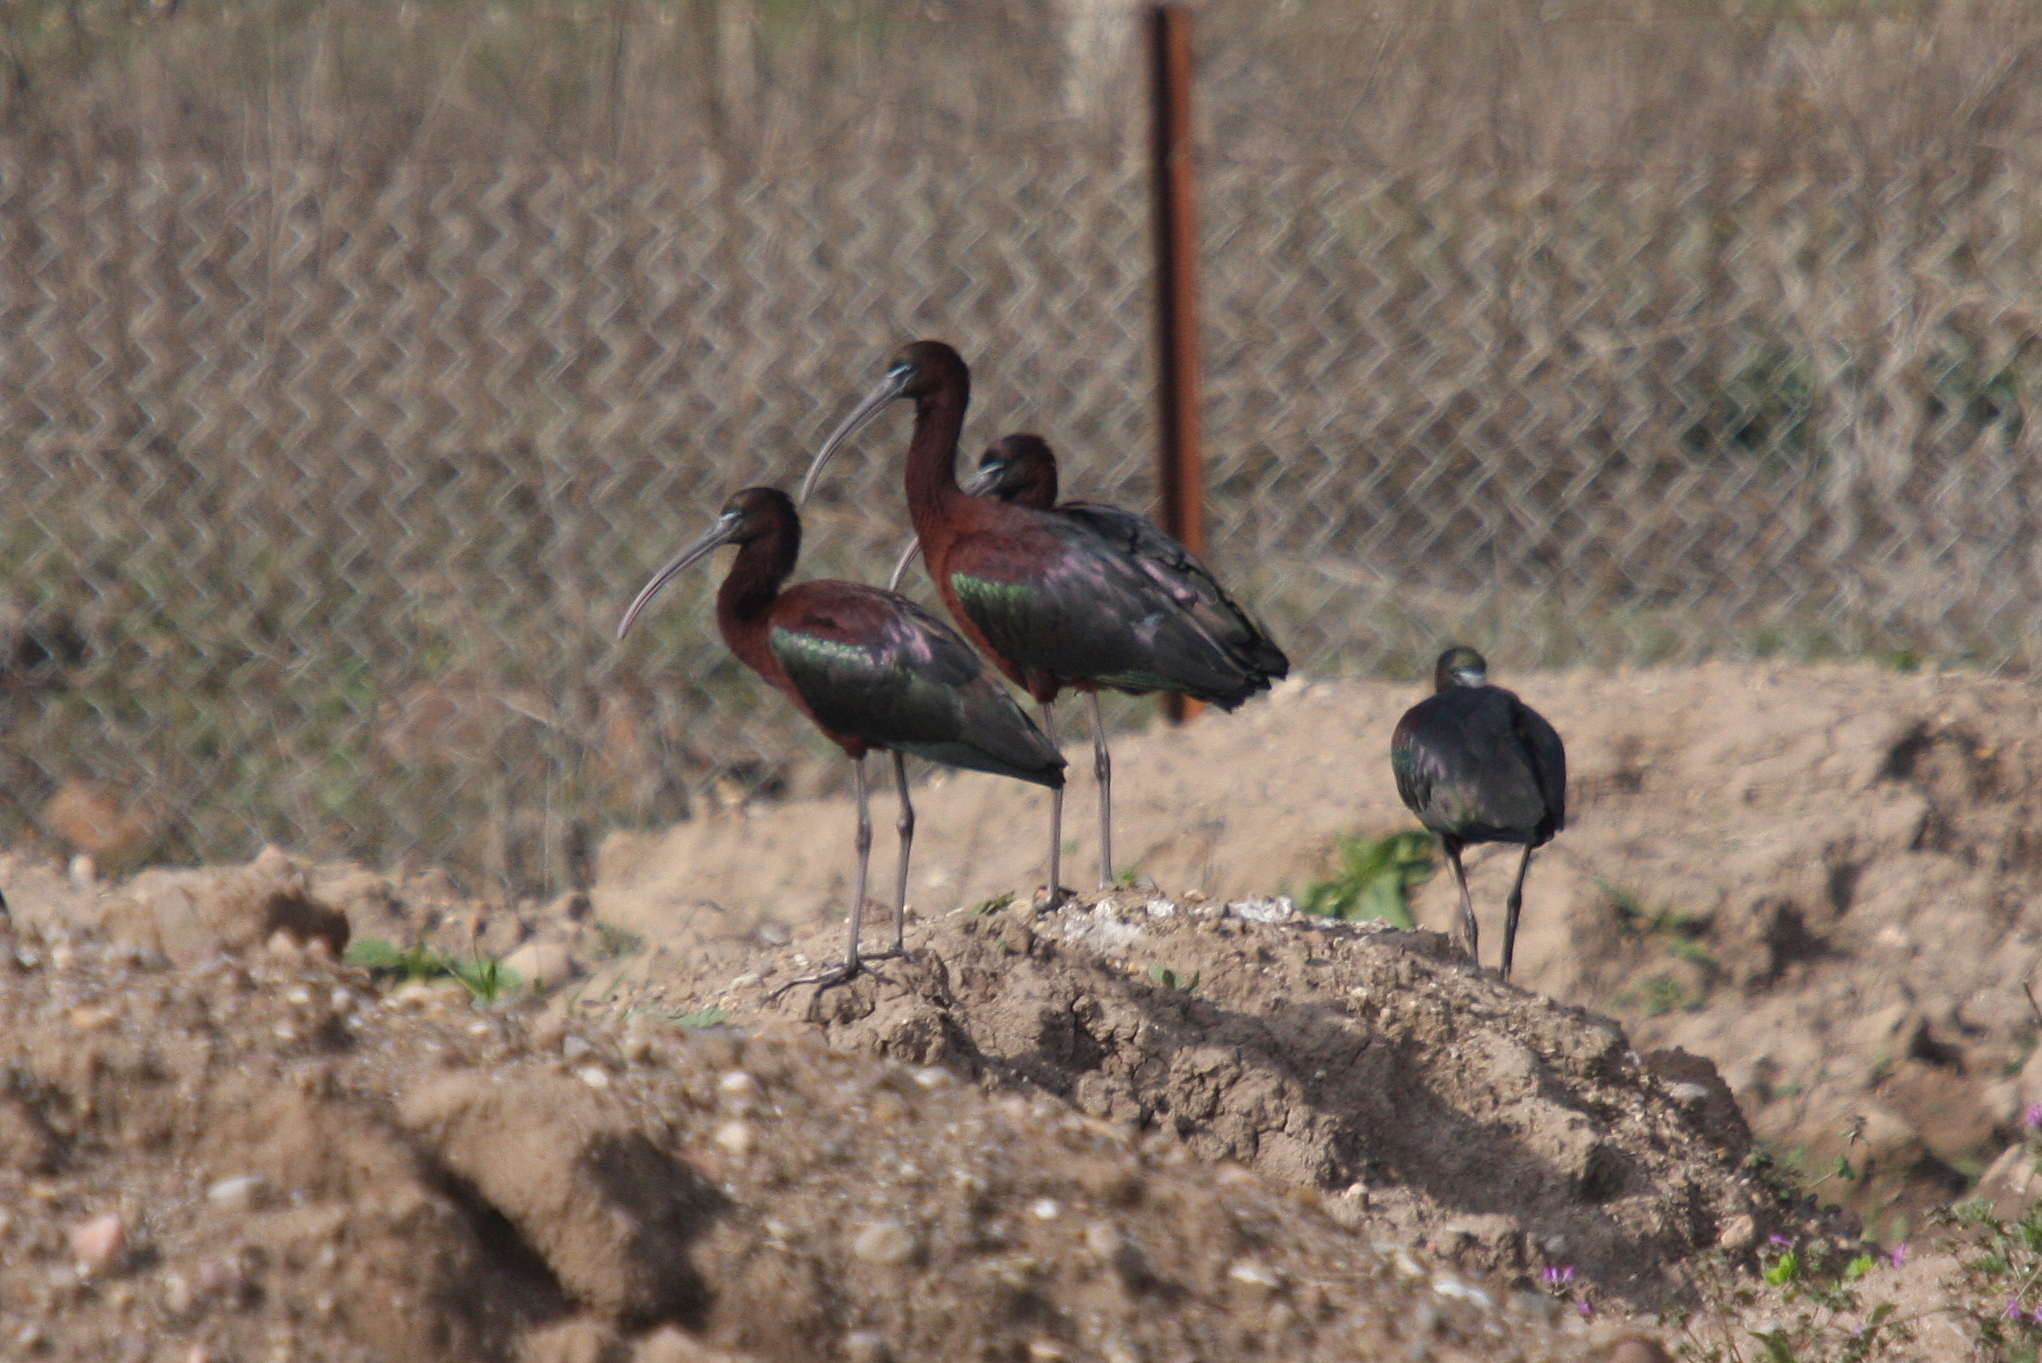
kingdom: Animalia
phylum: Chordata
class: Aves
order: Pelecaniformes
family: Threskiornithidae
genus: Plegadis
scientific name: Plegadis falcinellus
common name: Glossy ibis
